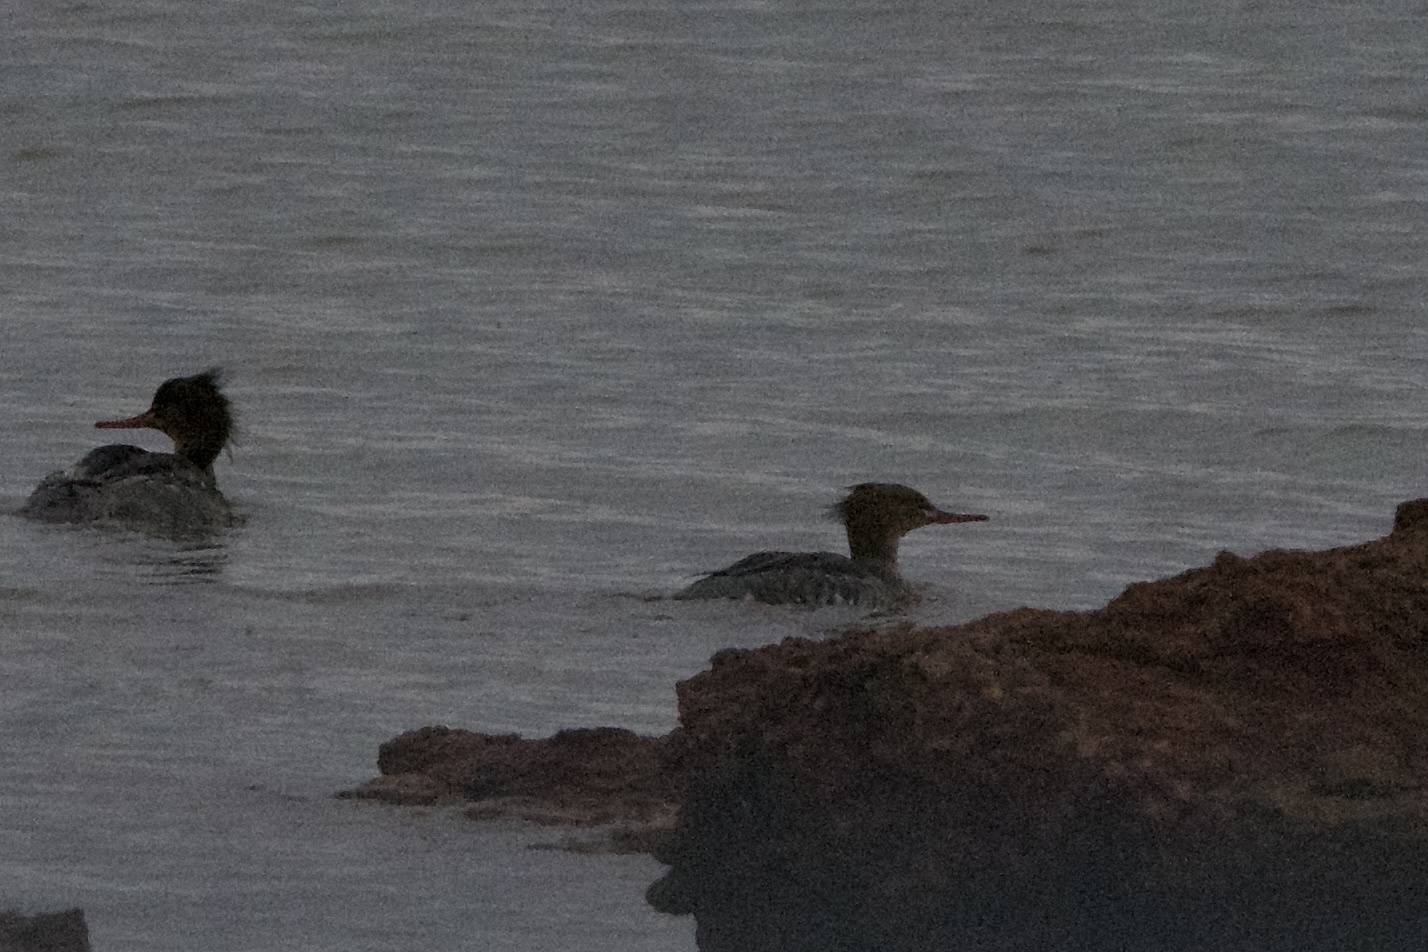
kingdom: Animalia
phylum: Chordata
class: Aves
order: Anseriformes
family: Anatidae
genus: Mergus
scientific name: Mergus merganser
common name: Common merganser
